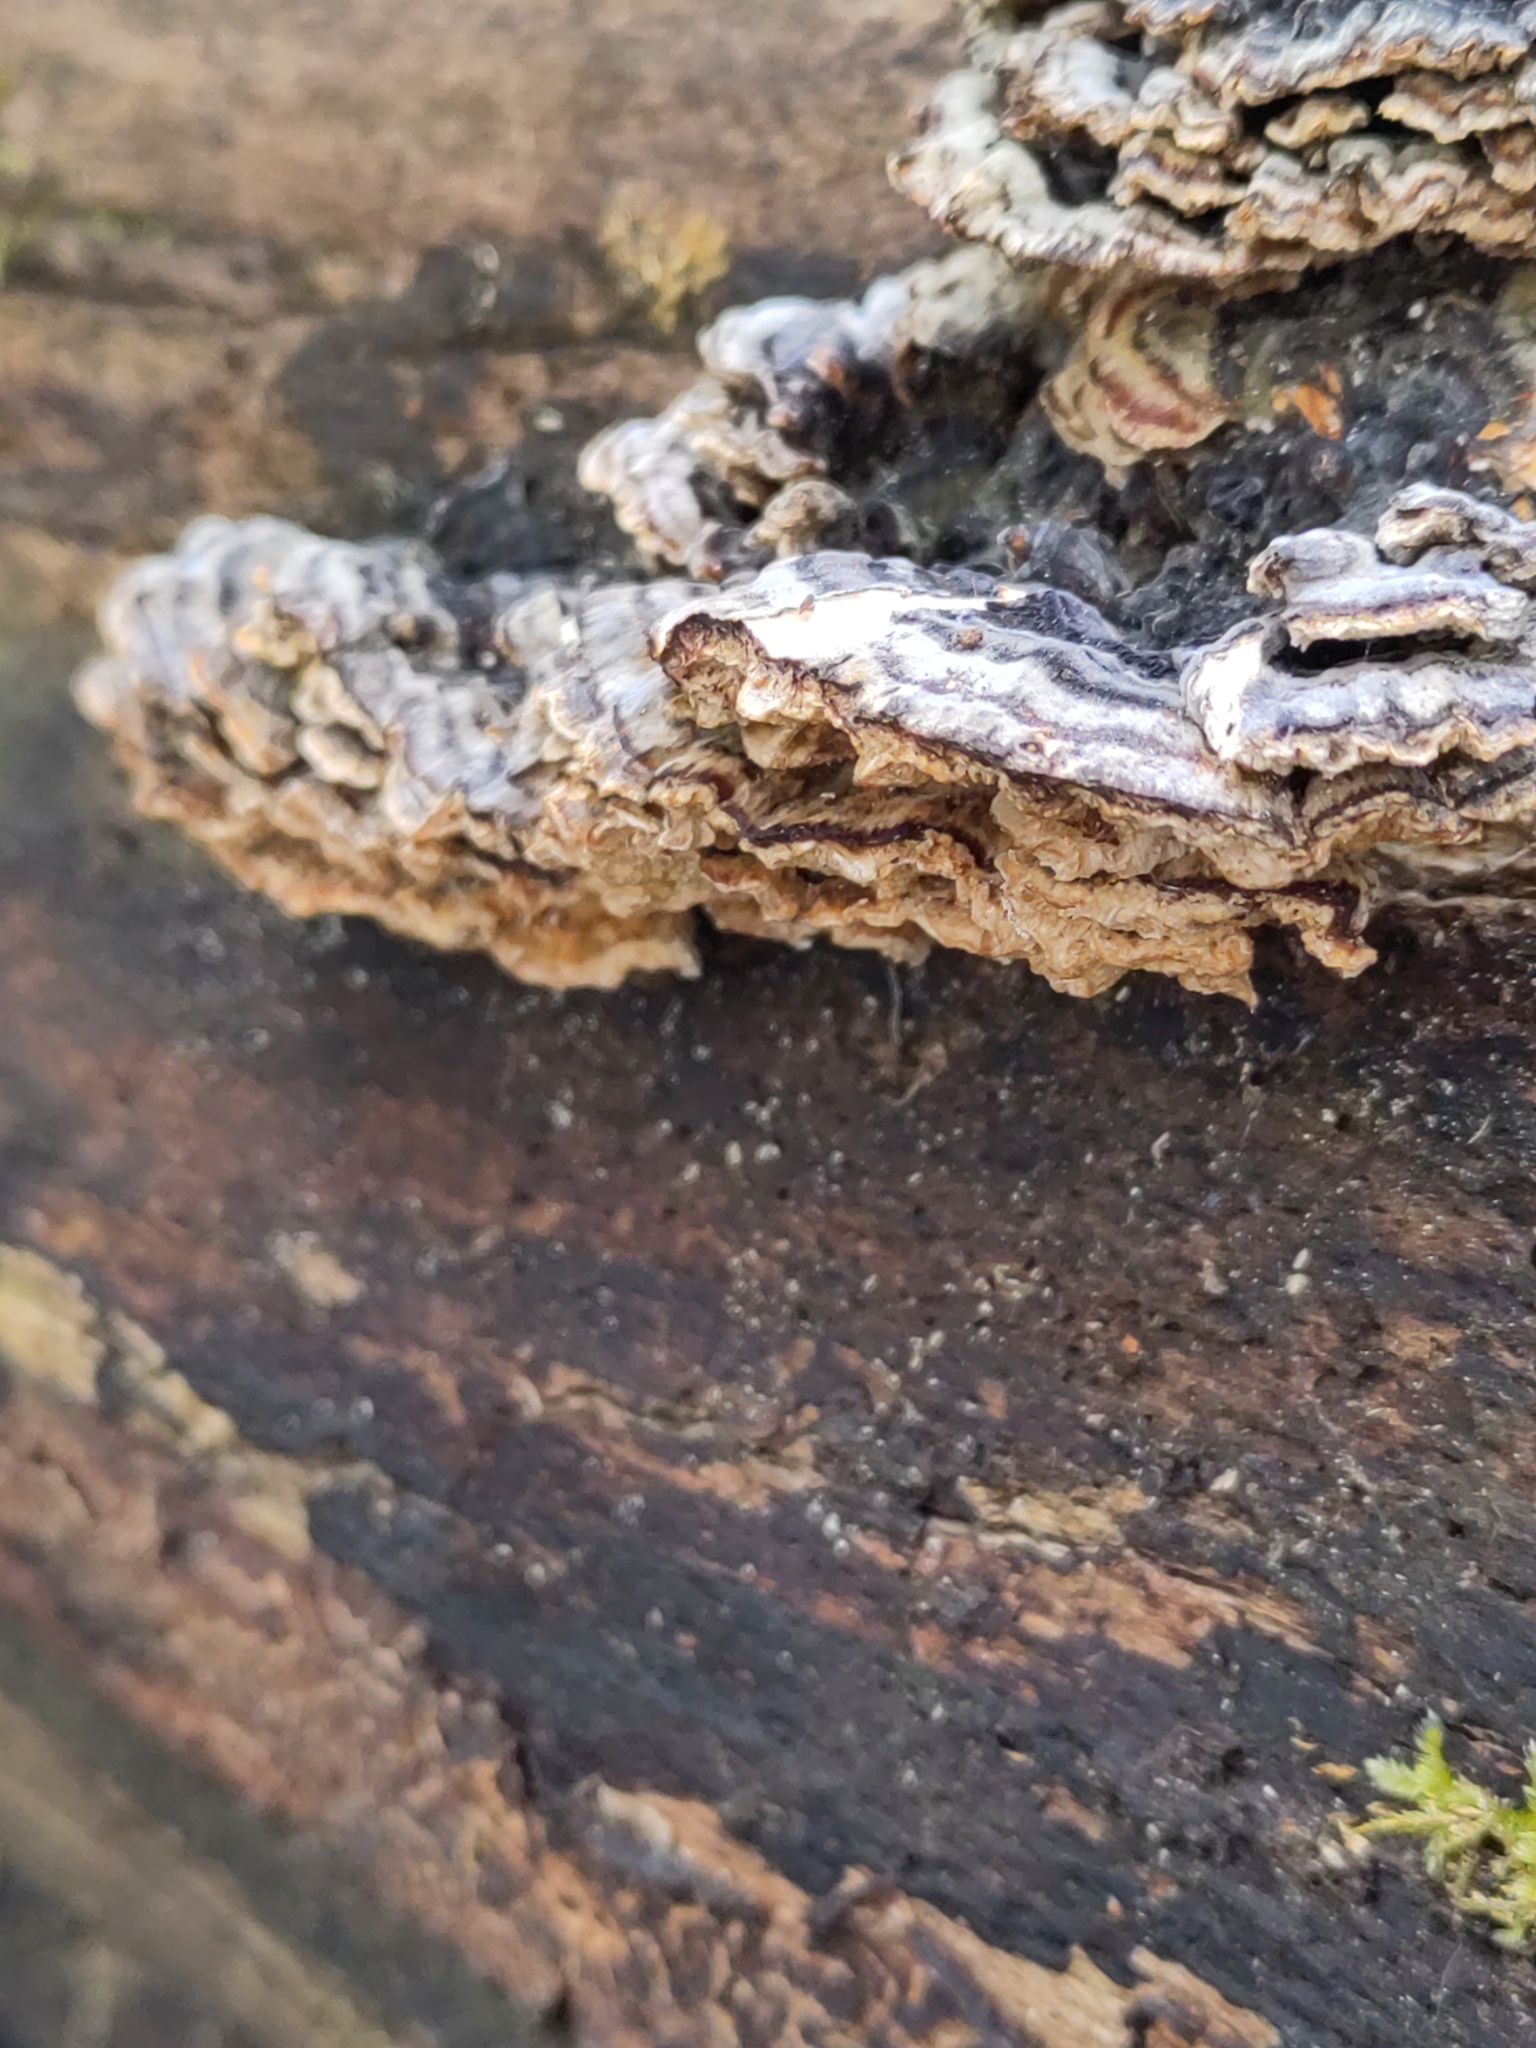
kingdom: Fungi
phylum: Basidiomycota
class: Agaricomycetes
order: Polyporales
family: Polyporaceae
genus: Trametes
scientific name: Trametes versicolor
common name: Turkeytail
